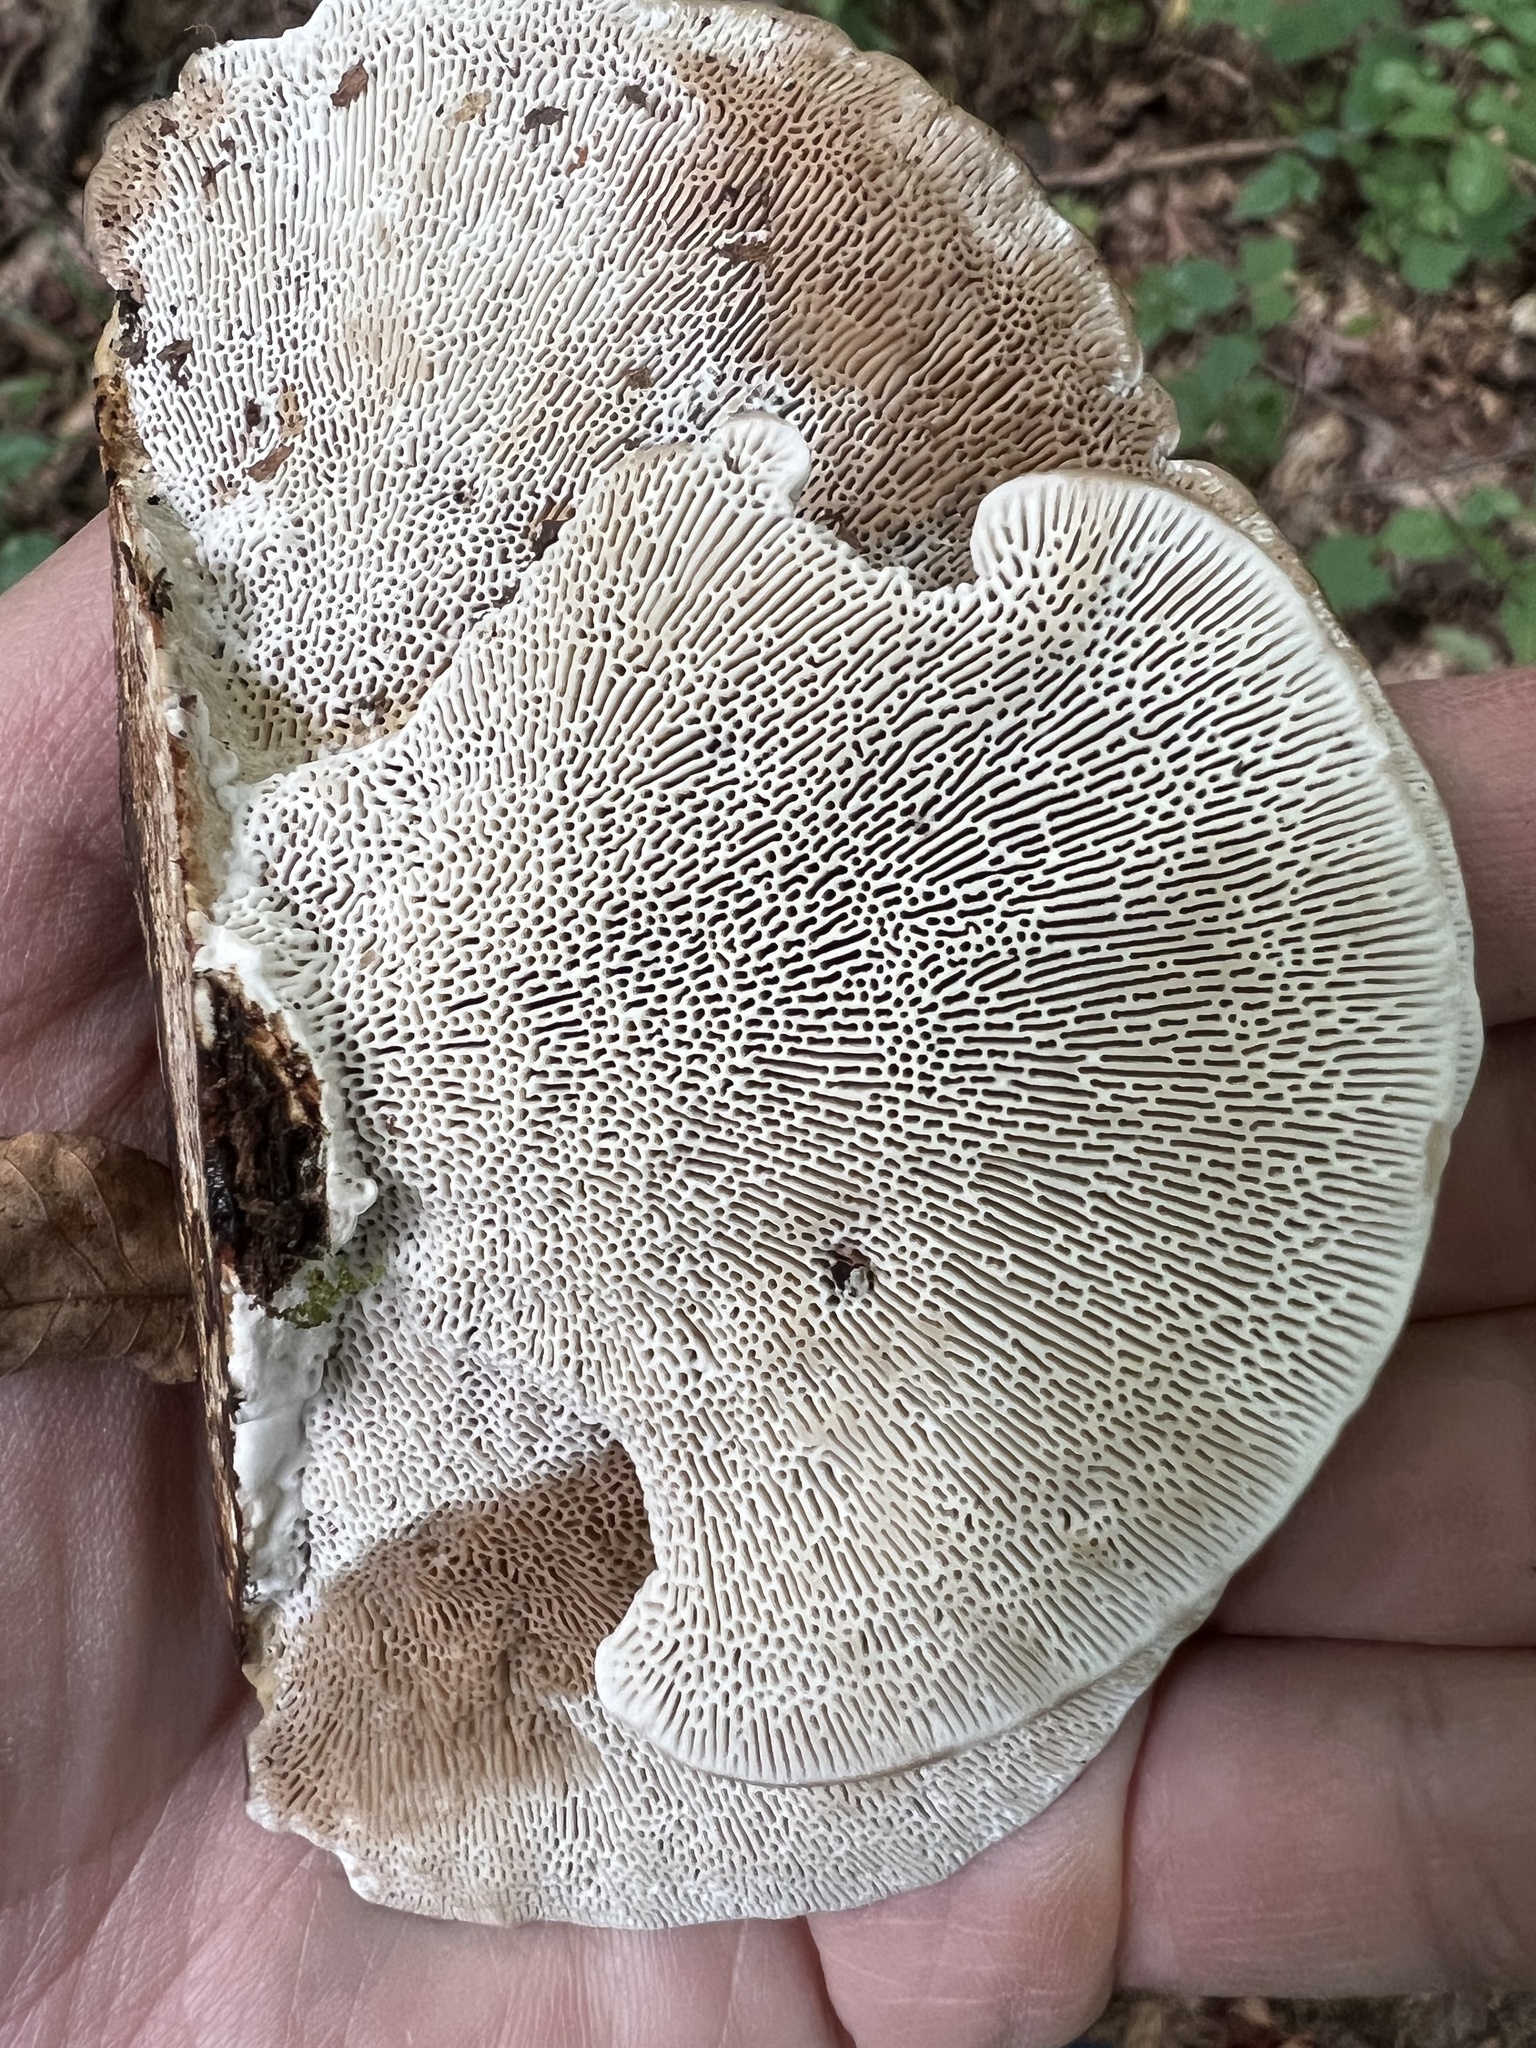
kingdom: Fungi
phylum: Basidiomycota
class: Agaricomycetes
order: Polyporales
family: Polyporaceae
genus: Daedaleopsis
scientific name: Daedaleopsis confragosa
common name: Blushing bracket
